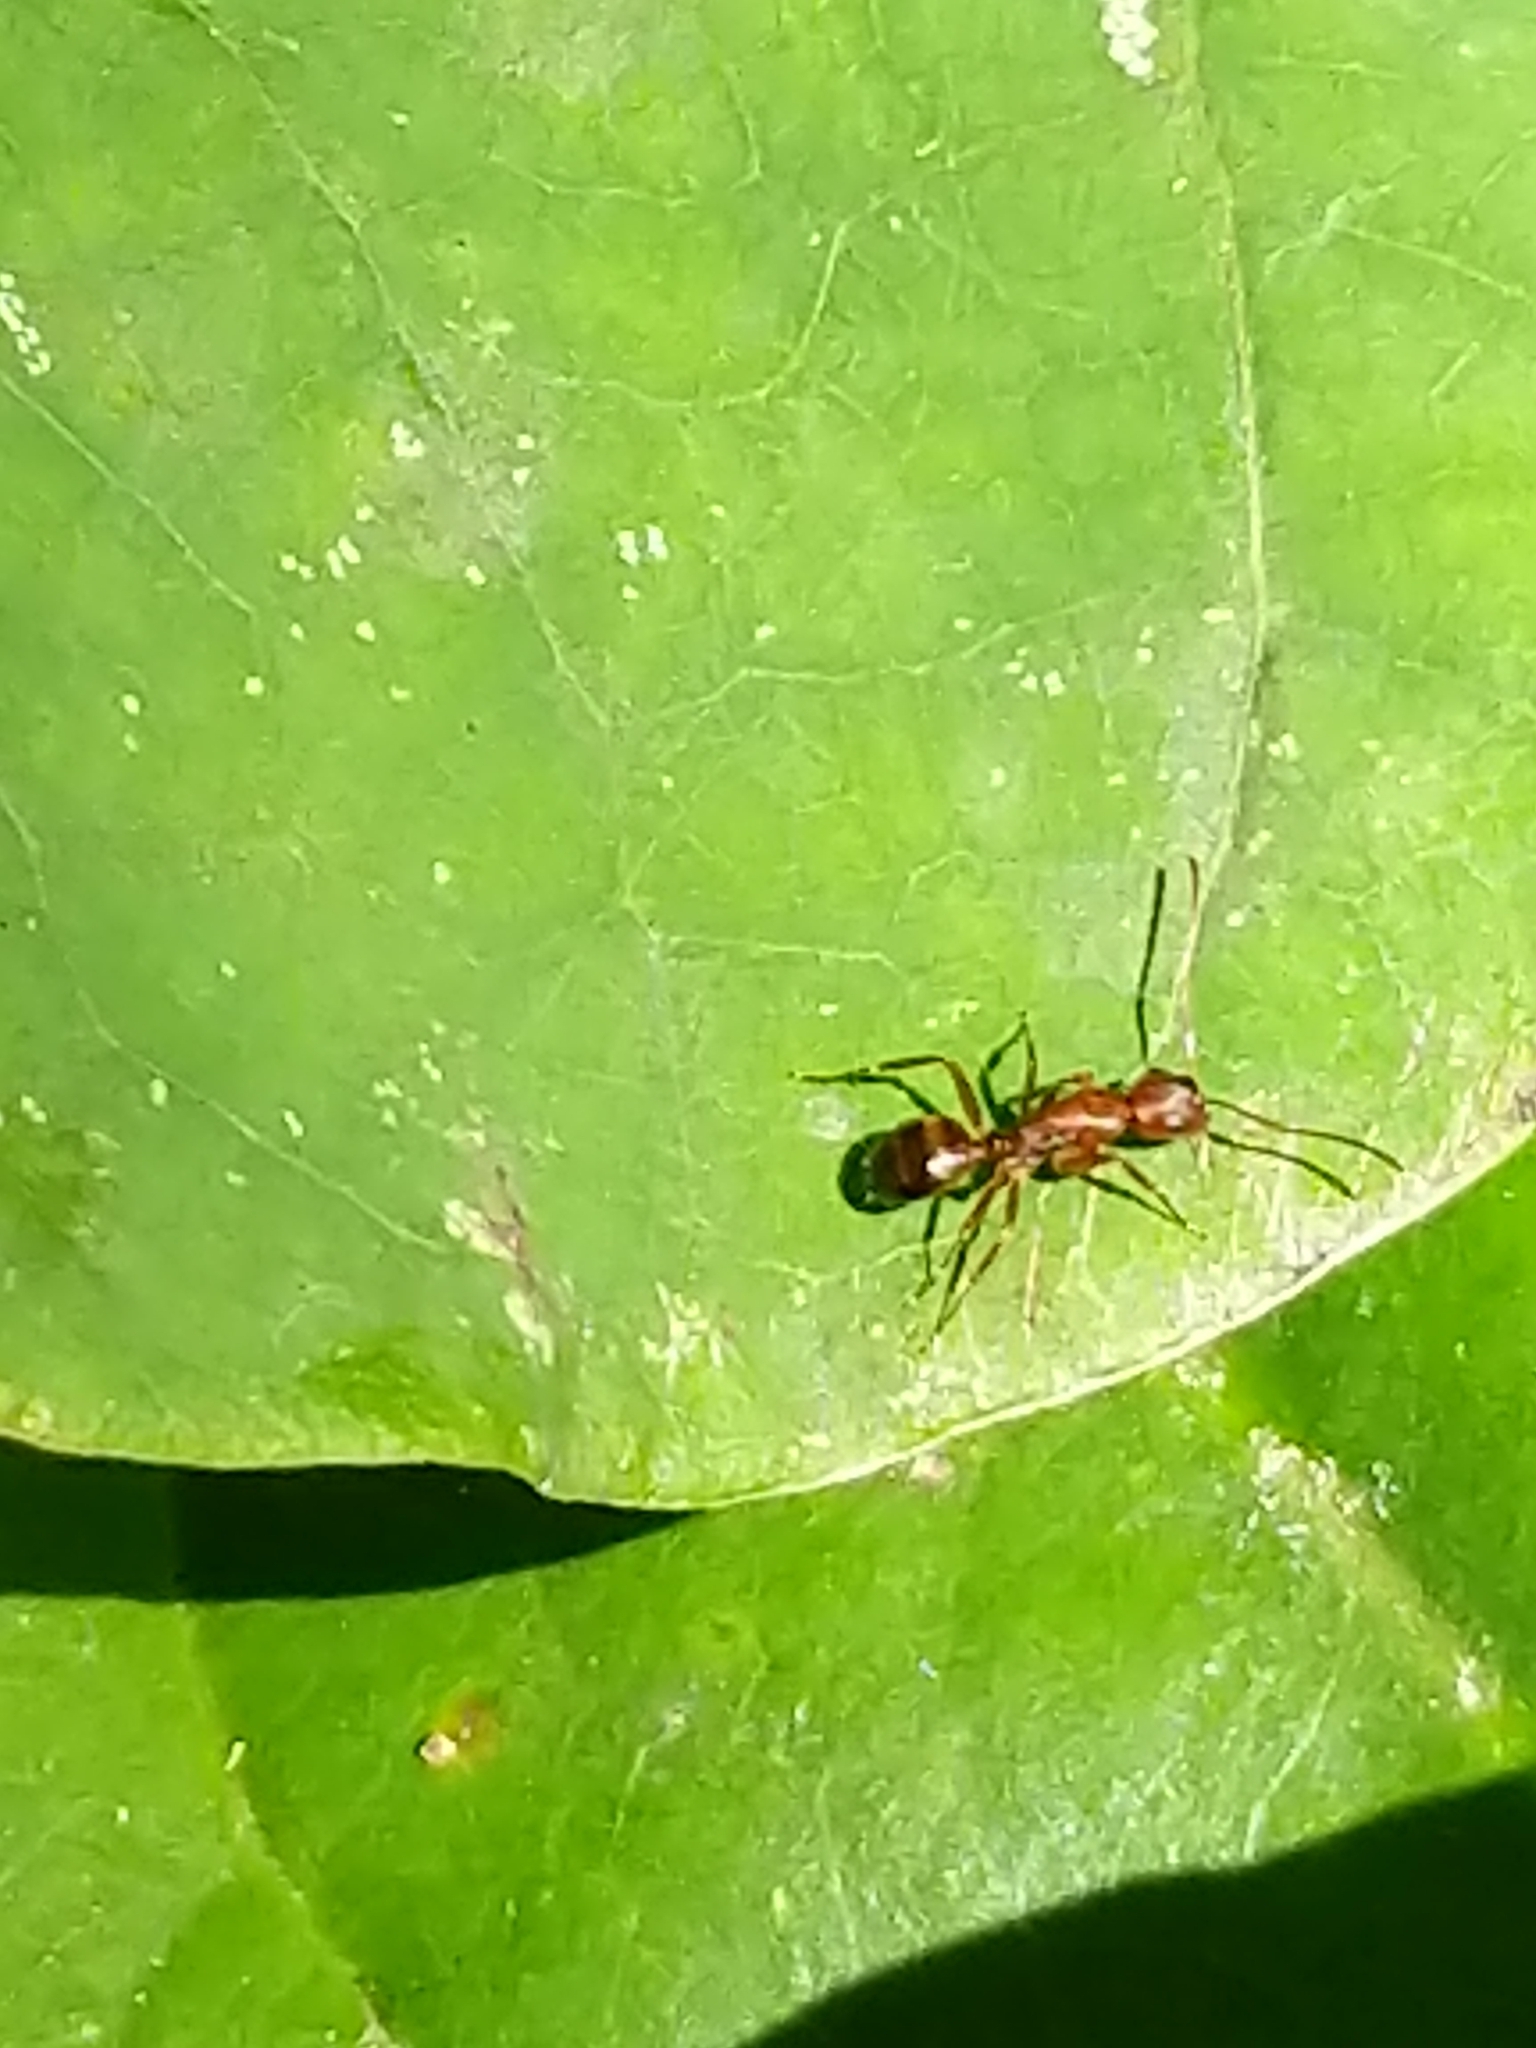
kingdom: Animalia
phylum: Arthropoda
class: Insecta
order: Hymenoptera
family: Formicidae
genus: Camponotus
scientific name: Camponotus subbarbatus
